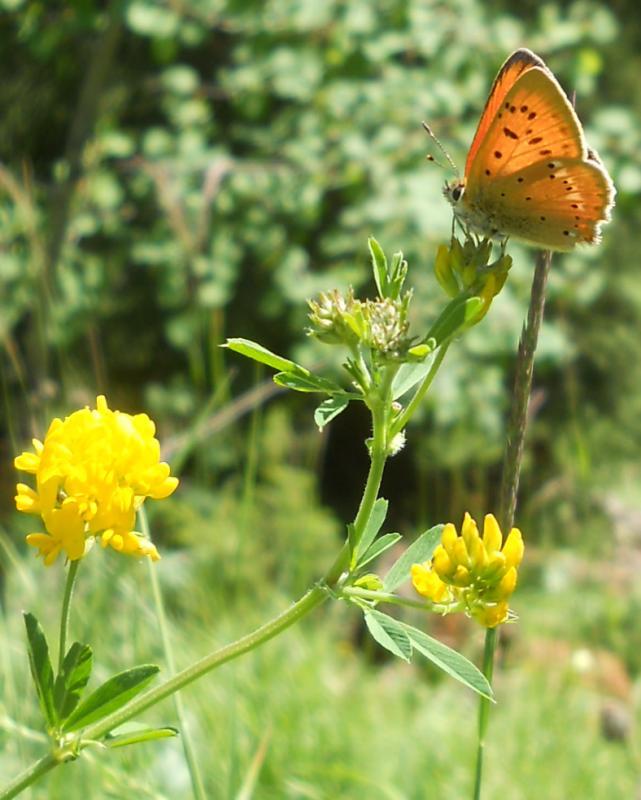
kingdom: Animalia
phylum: Arthropoda
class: Insecta
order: Lepidoptera
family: Lycaenidae
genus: Lycaena
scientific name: Lycaena virgaureae
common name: Scarce copper
